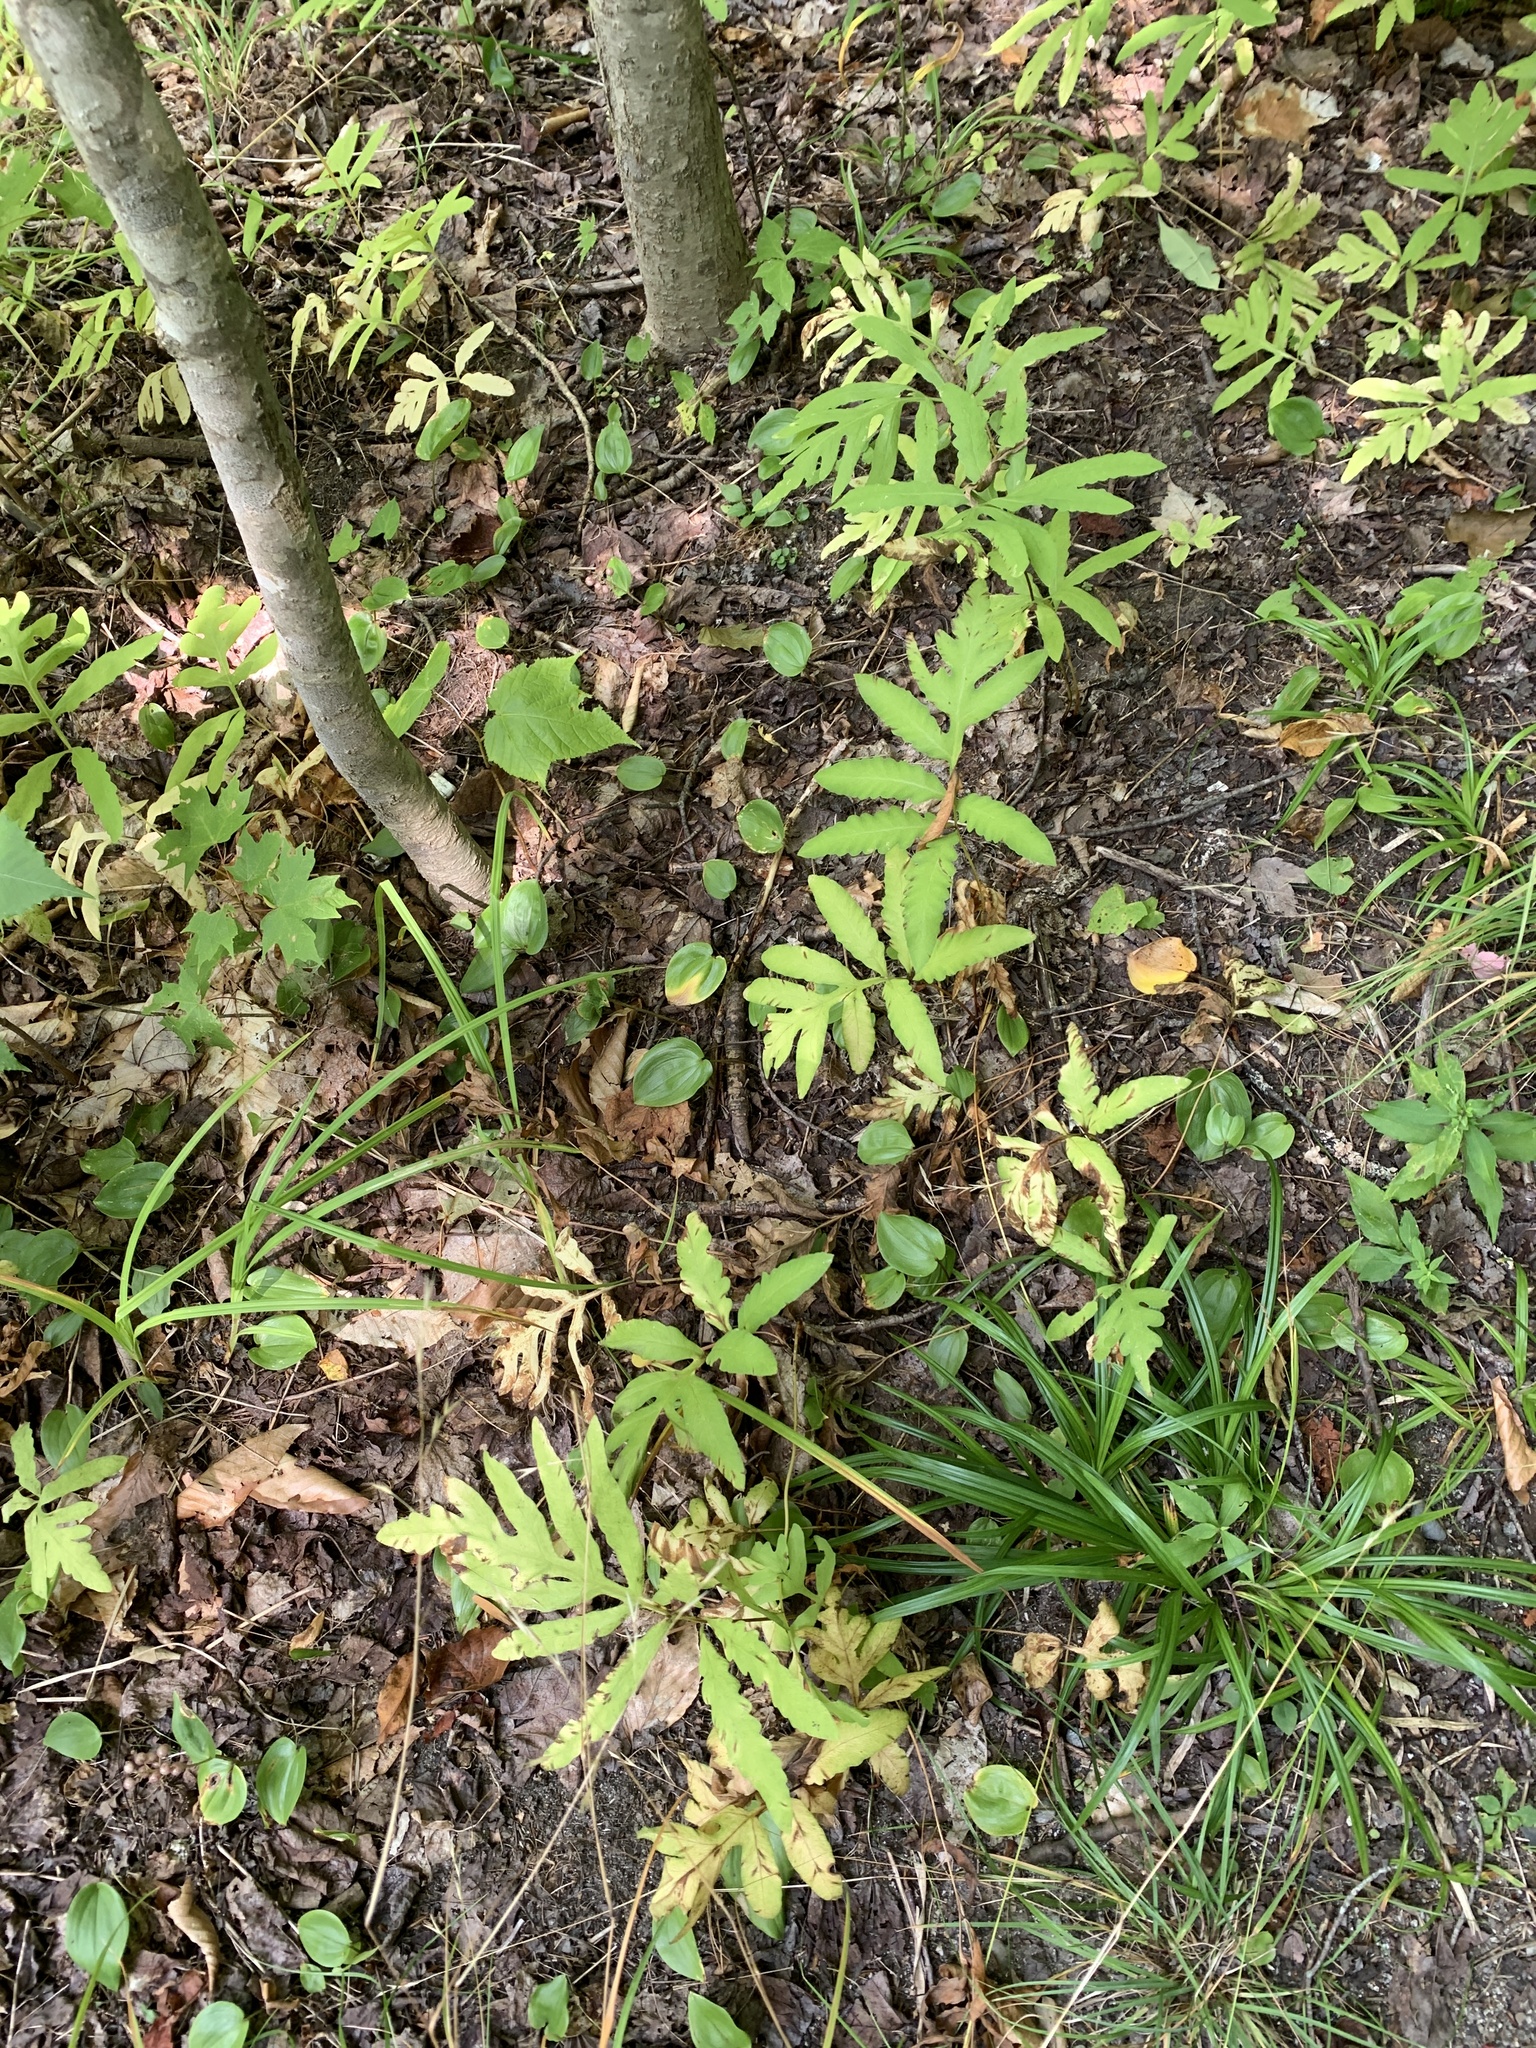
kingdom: Plantae
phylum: Tracheophyta
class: Polypodiopsida
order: Polypodiales
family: Onocleaceae
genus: Onoclea
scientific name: Onoclea sensibilis
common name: Sensitive fern
